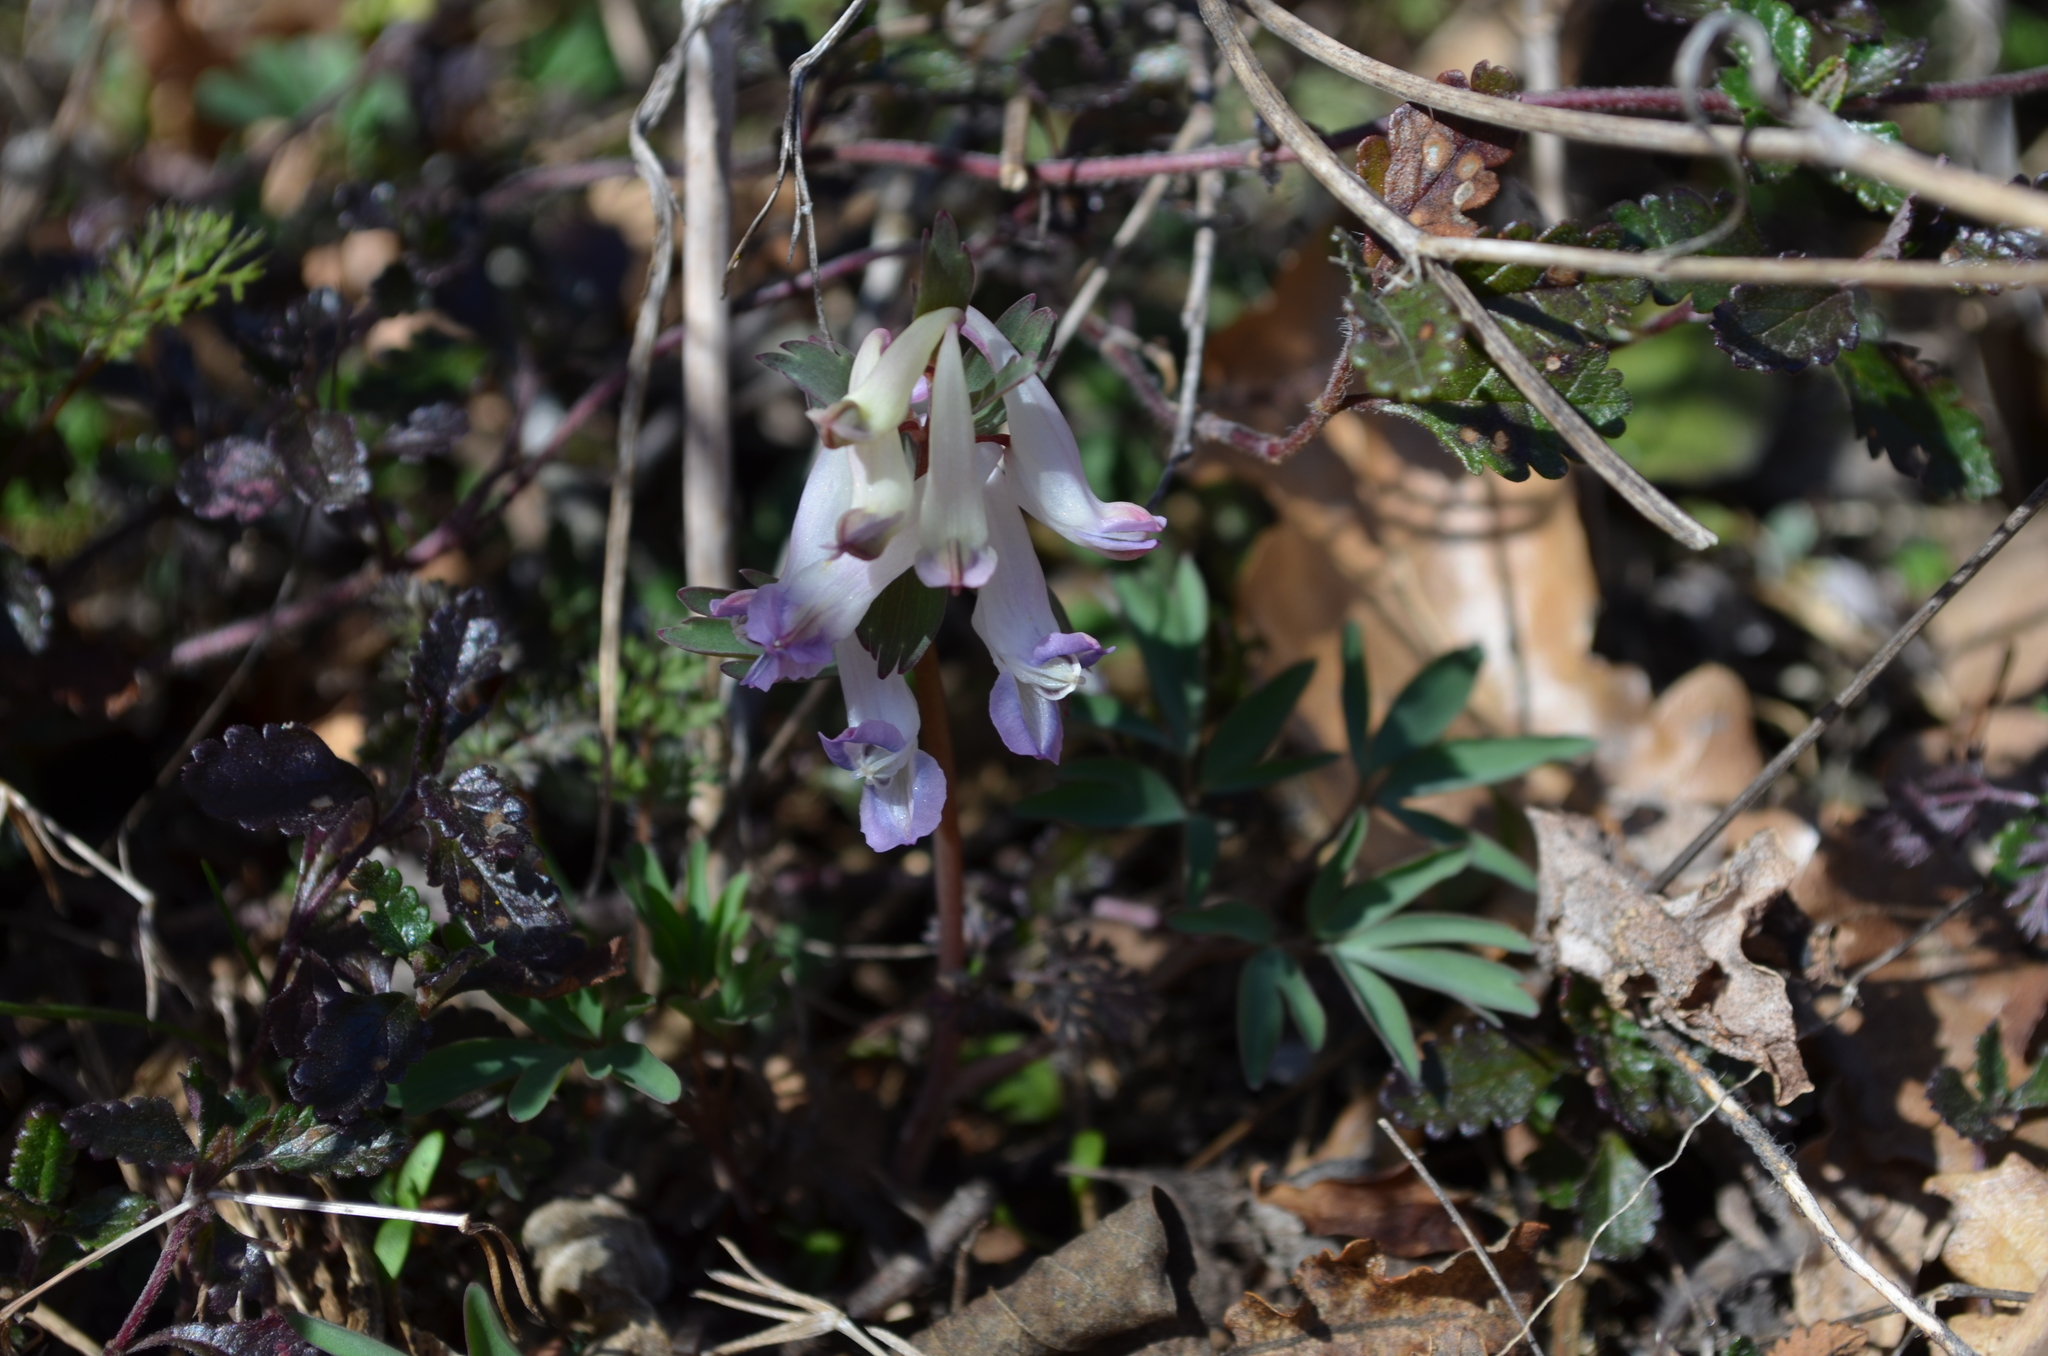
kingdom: Plantae
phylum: Tracheophyta
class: Magnoliopsida
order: Ranunculales
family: Papaveraceae
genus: Corydalis
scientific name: Corydalis solida
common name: Bird-in-a-bush
